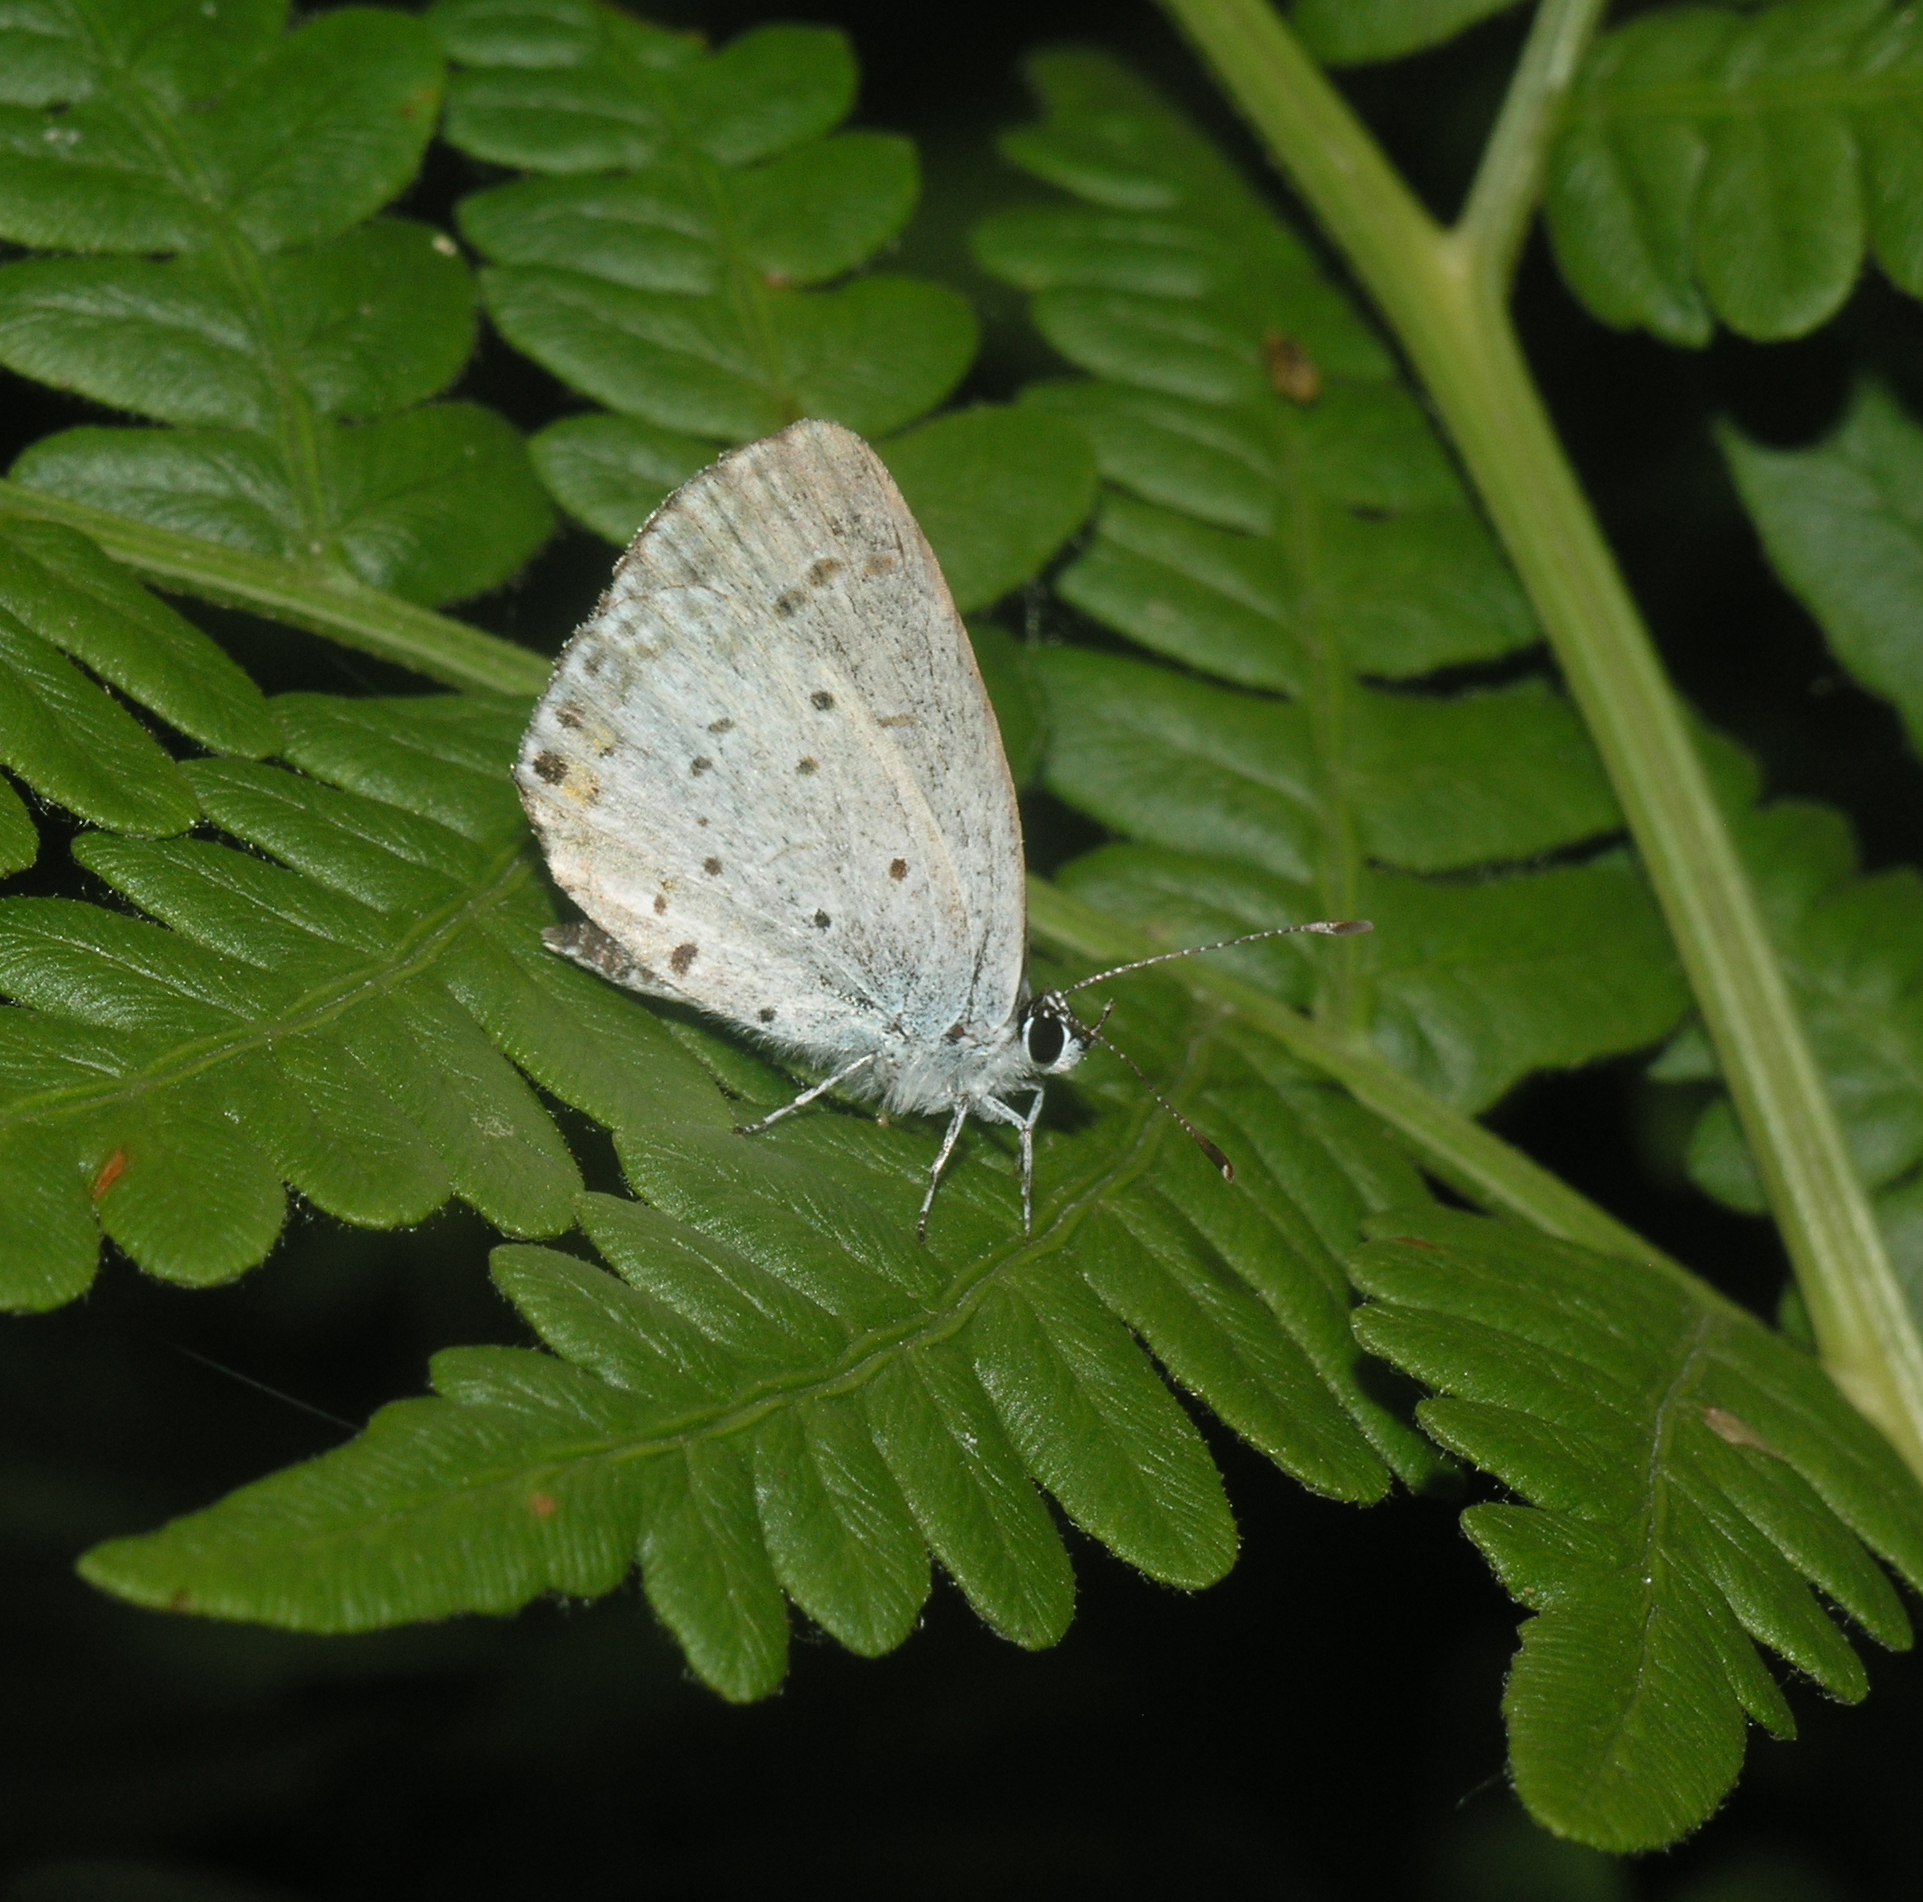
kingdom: Animalia
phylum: Arthropoda
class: Insecta
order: Lepidoptera
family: Lycaenidae
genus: Elkalyce
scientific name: Elkalyce argiades
